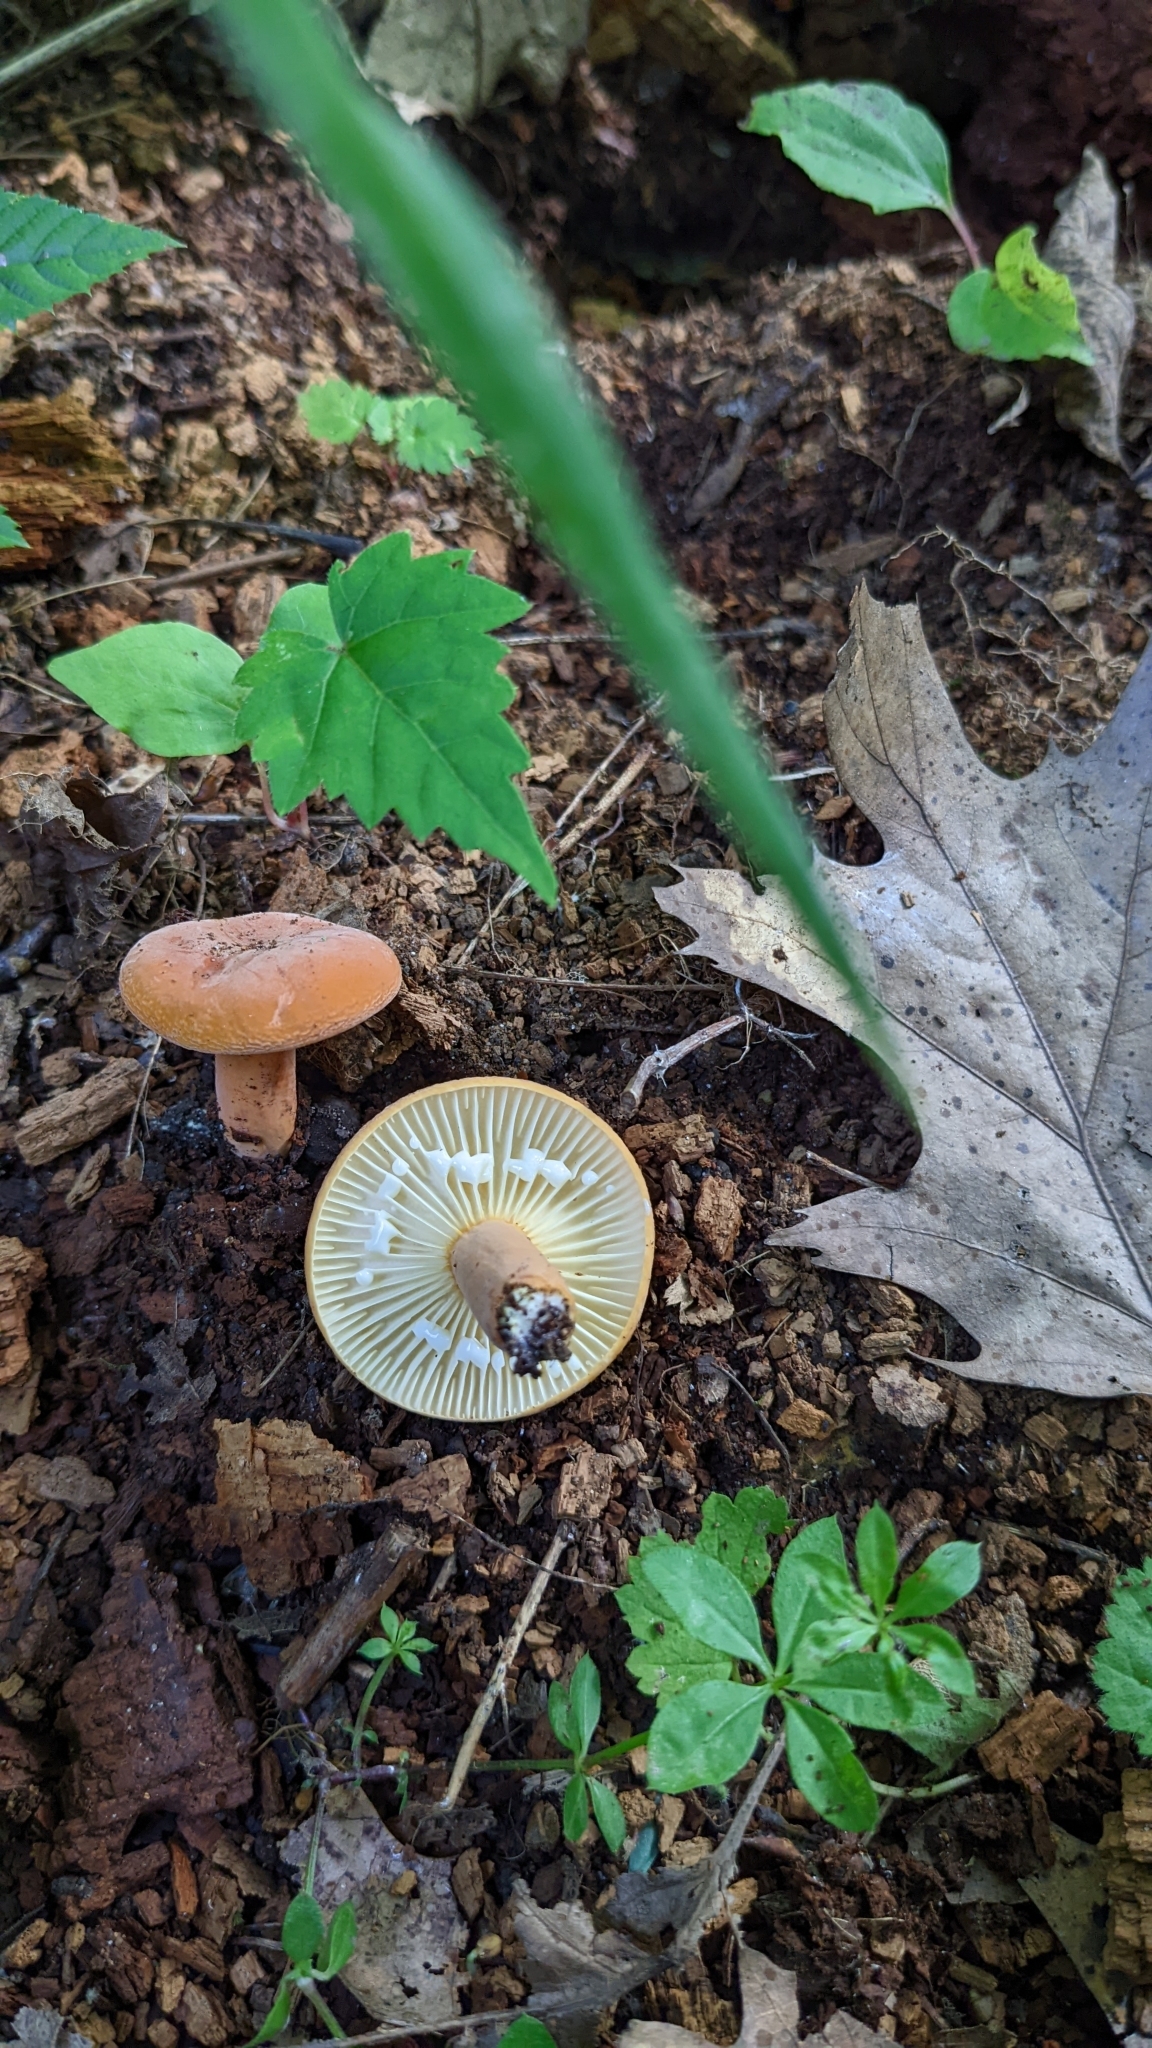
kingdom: Fungi
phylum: Basidiomycota
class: Agaricomycetes
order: Russulales
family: Russulaceae
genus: Lactarius
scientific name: Lactarius hygrophoroides
